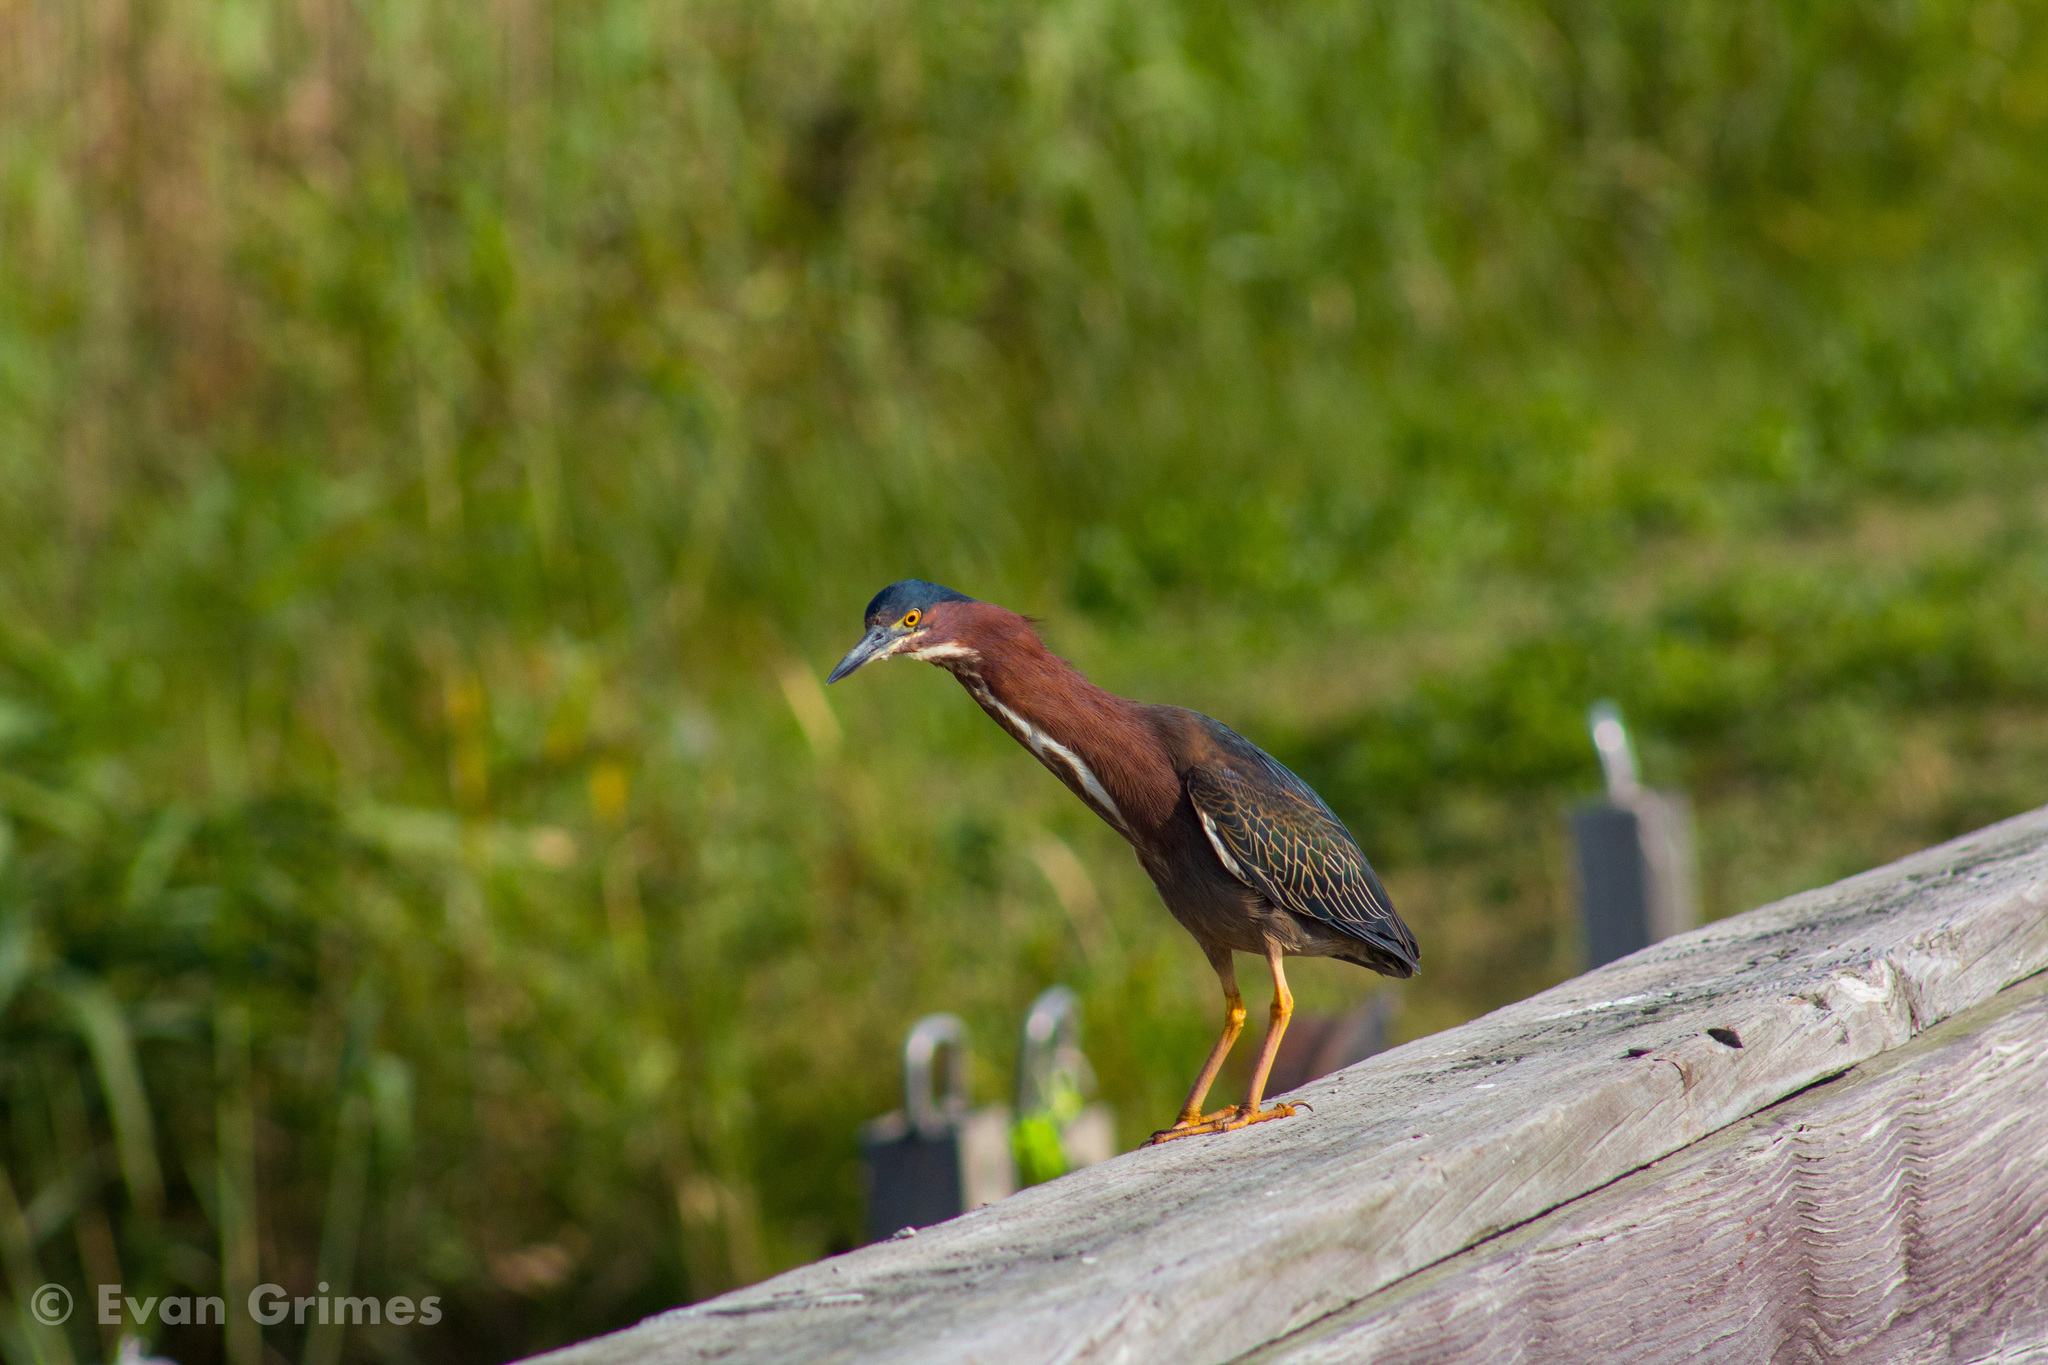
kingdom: Animalia
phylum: Chordata
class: Aves
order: Pelecaniformes
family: Ardeidae
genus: Butorides
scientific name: Butorides virescens
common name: Green heron
